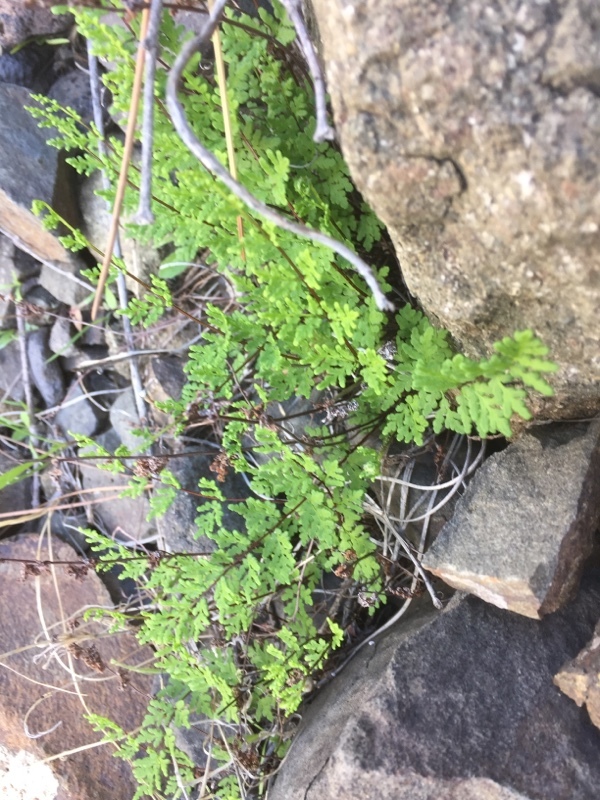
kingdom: Plantae
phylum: Tracheophyta
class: Polypodiopsida
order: Polypodiales
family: Pteridaceae
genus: Oeosporangium
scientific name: Oeosporangium pteridioides
